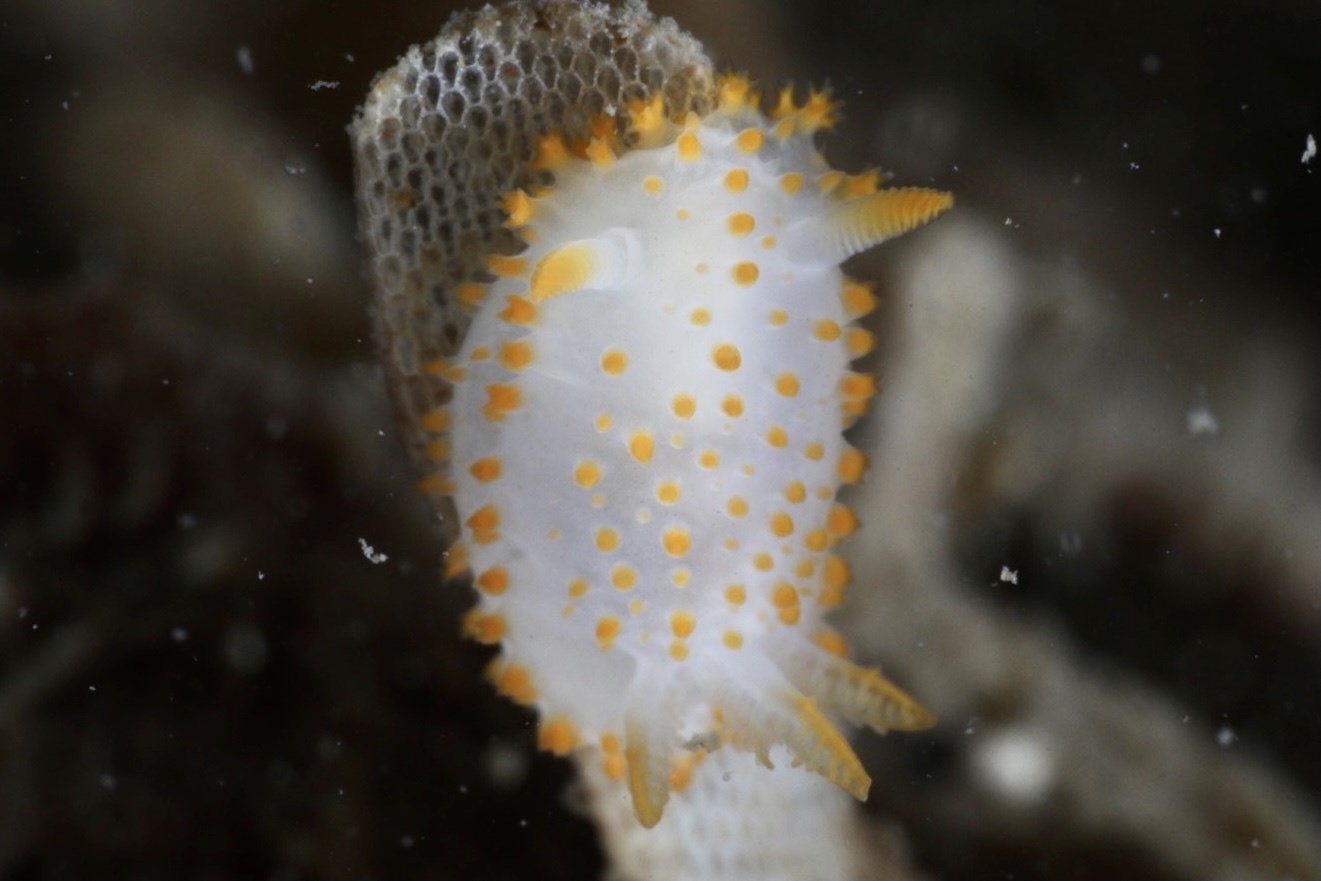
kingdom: Animalia
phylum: Mollusca
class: Gastropoda
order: Nudibranchia
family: Polyceridae
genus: Crimora
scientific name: Crimora papillata
